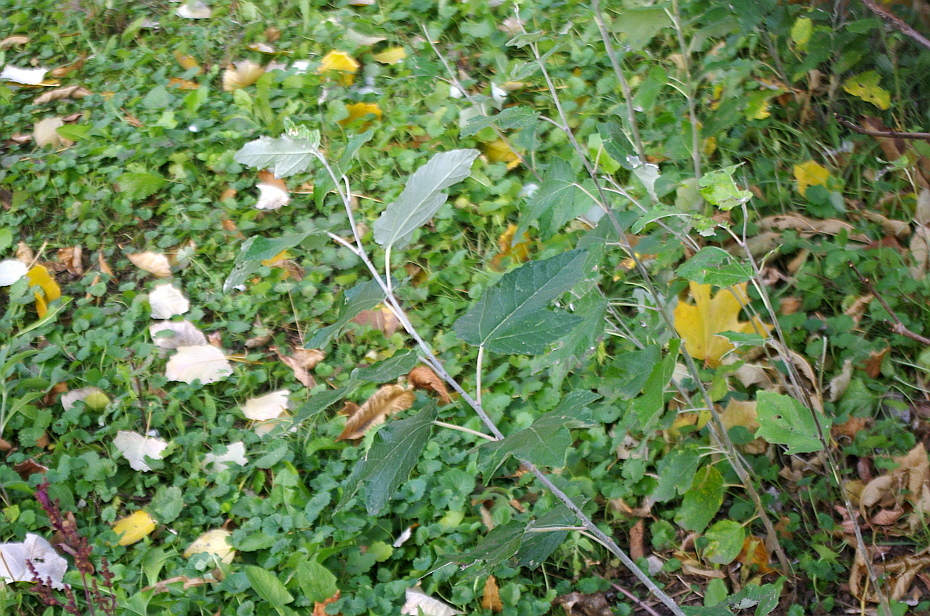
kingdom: Plantae
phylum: Tracheophyta
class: Magnoliopsida
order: Malpighiales
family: Salicaceae
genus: Populus
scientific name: Populus alba
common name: White poplar
